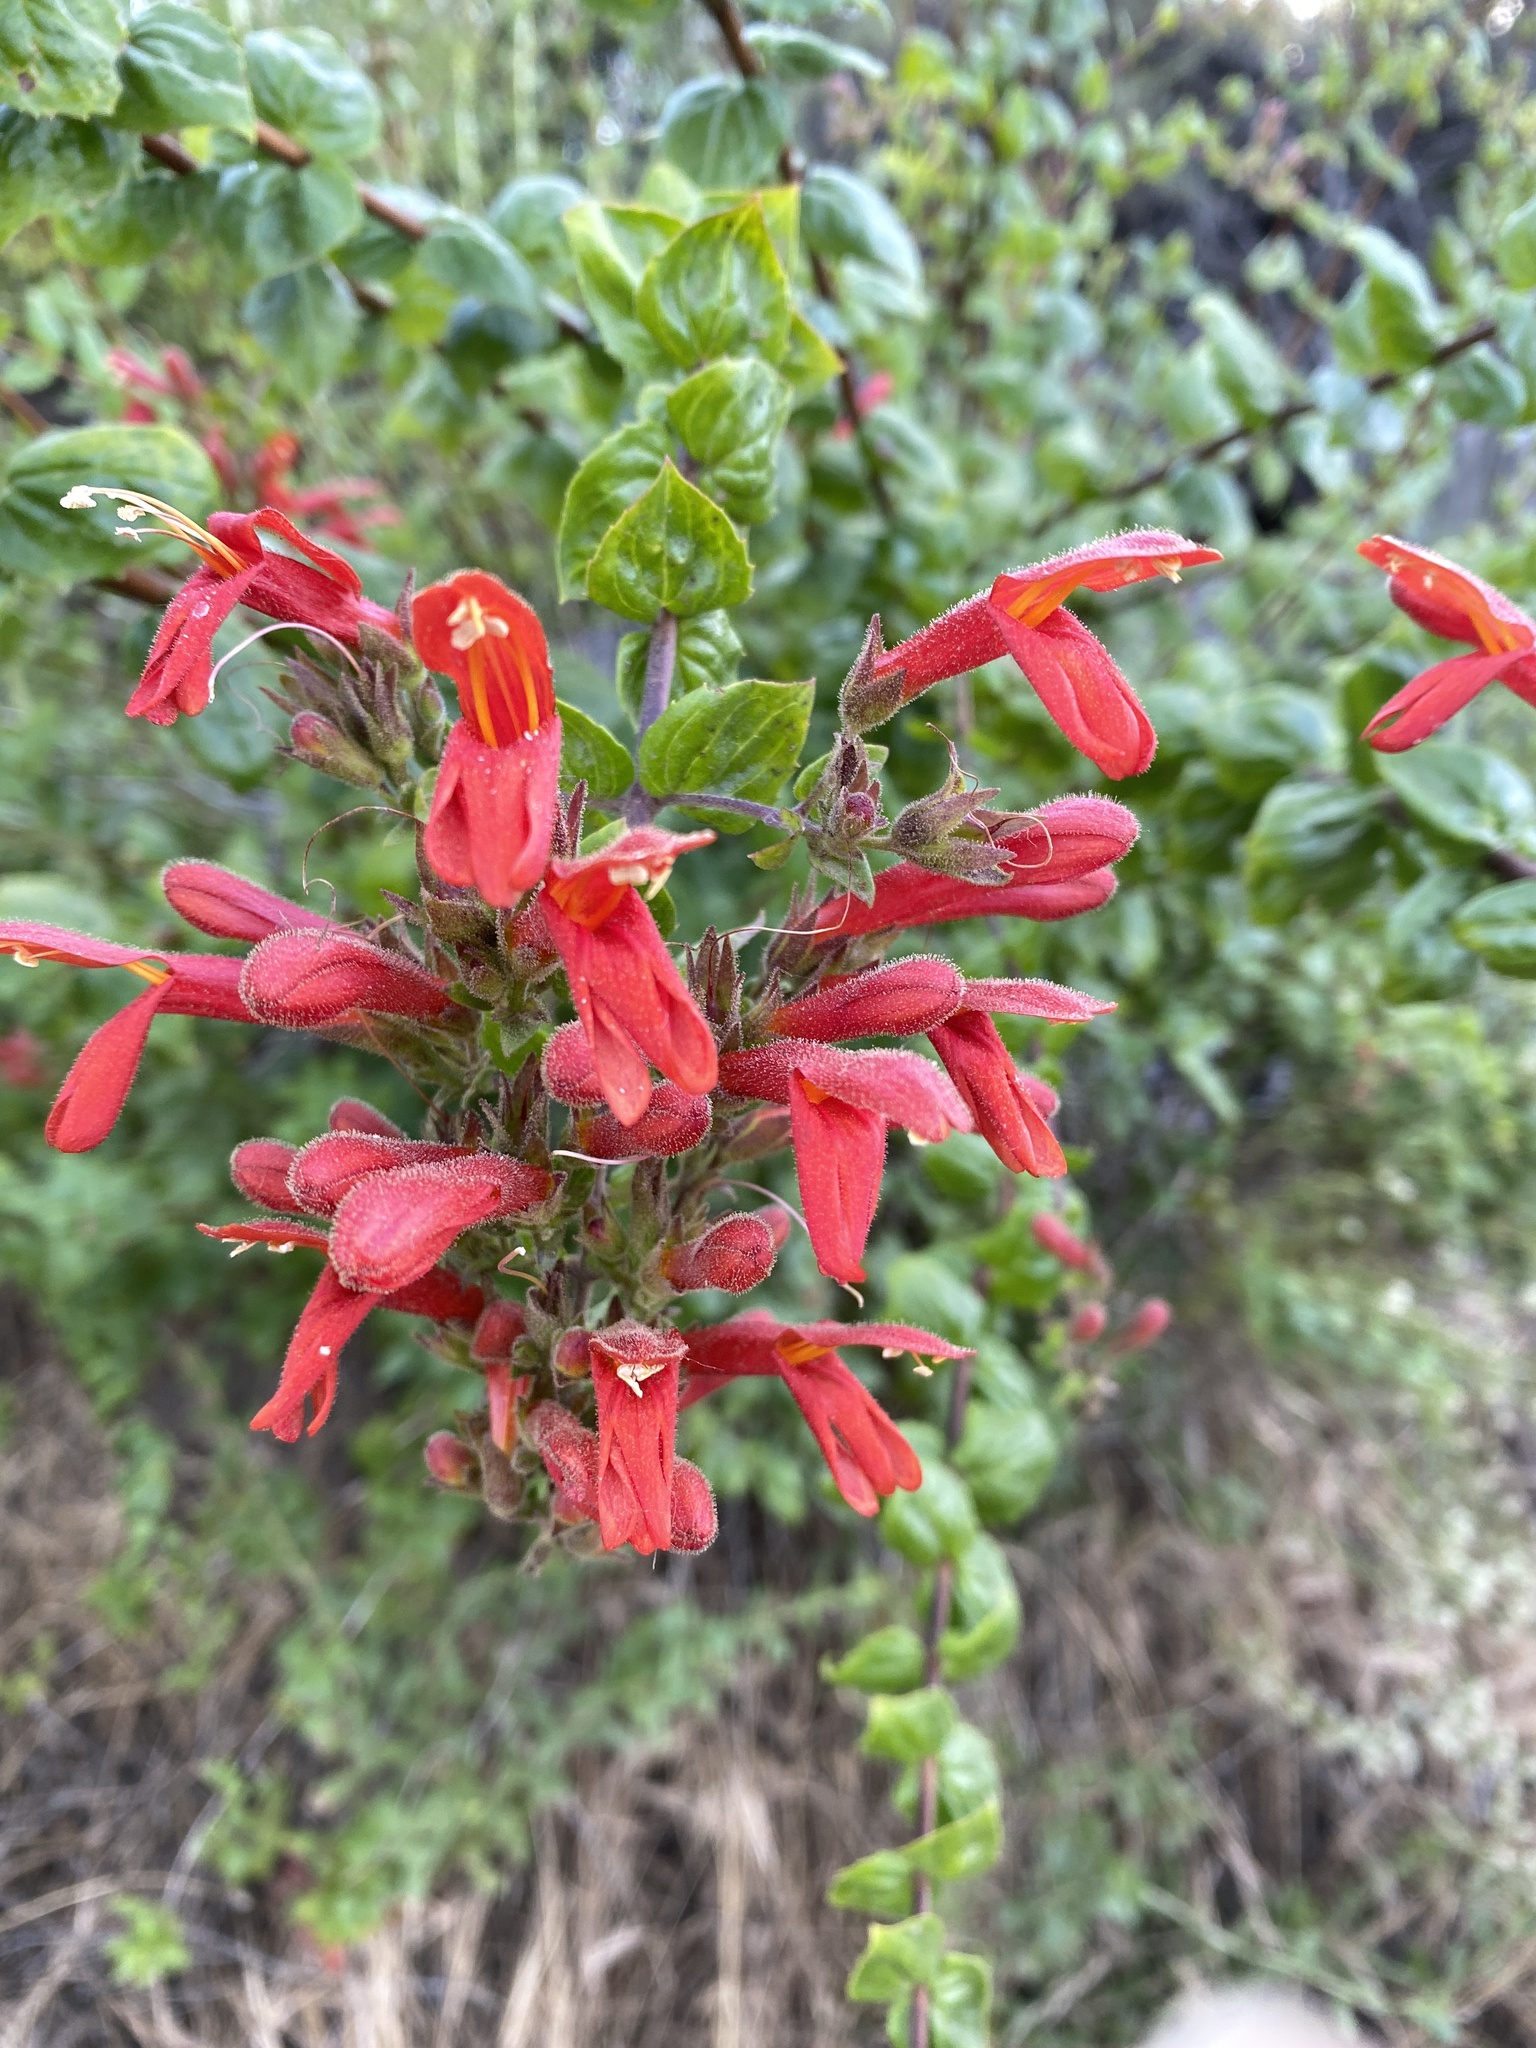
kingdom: Plantae
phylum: Tracheophyta
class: Magnoliopsida
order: Lamiales
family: Plantaginaceae
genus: Keckiella
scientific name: Keckiella cordifolia
